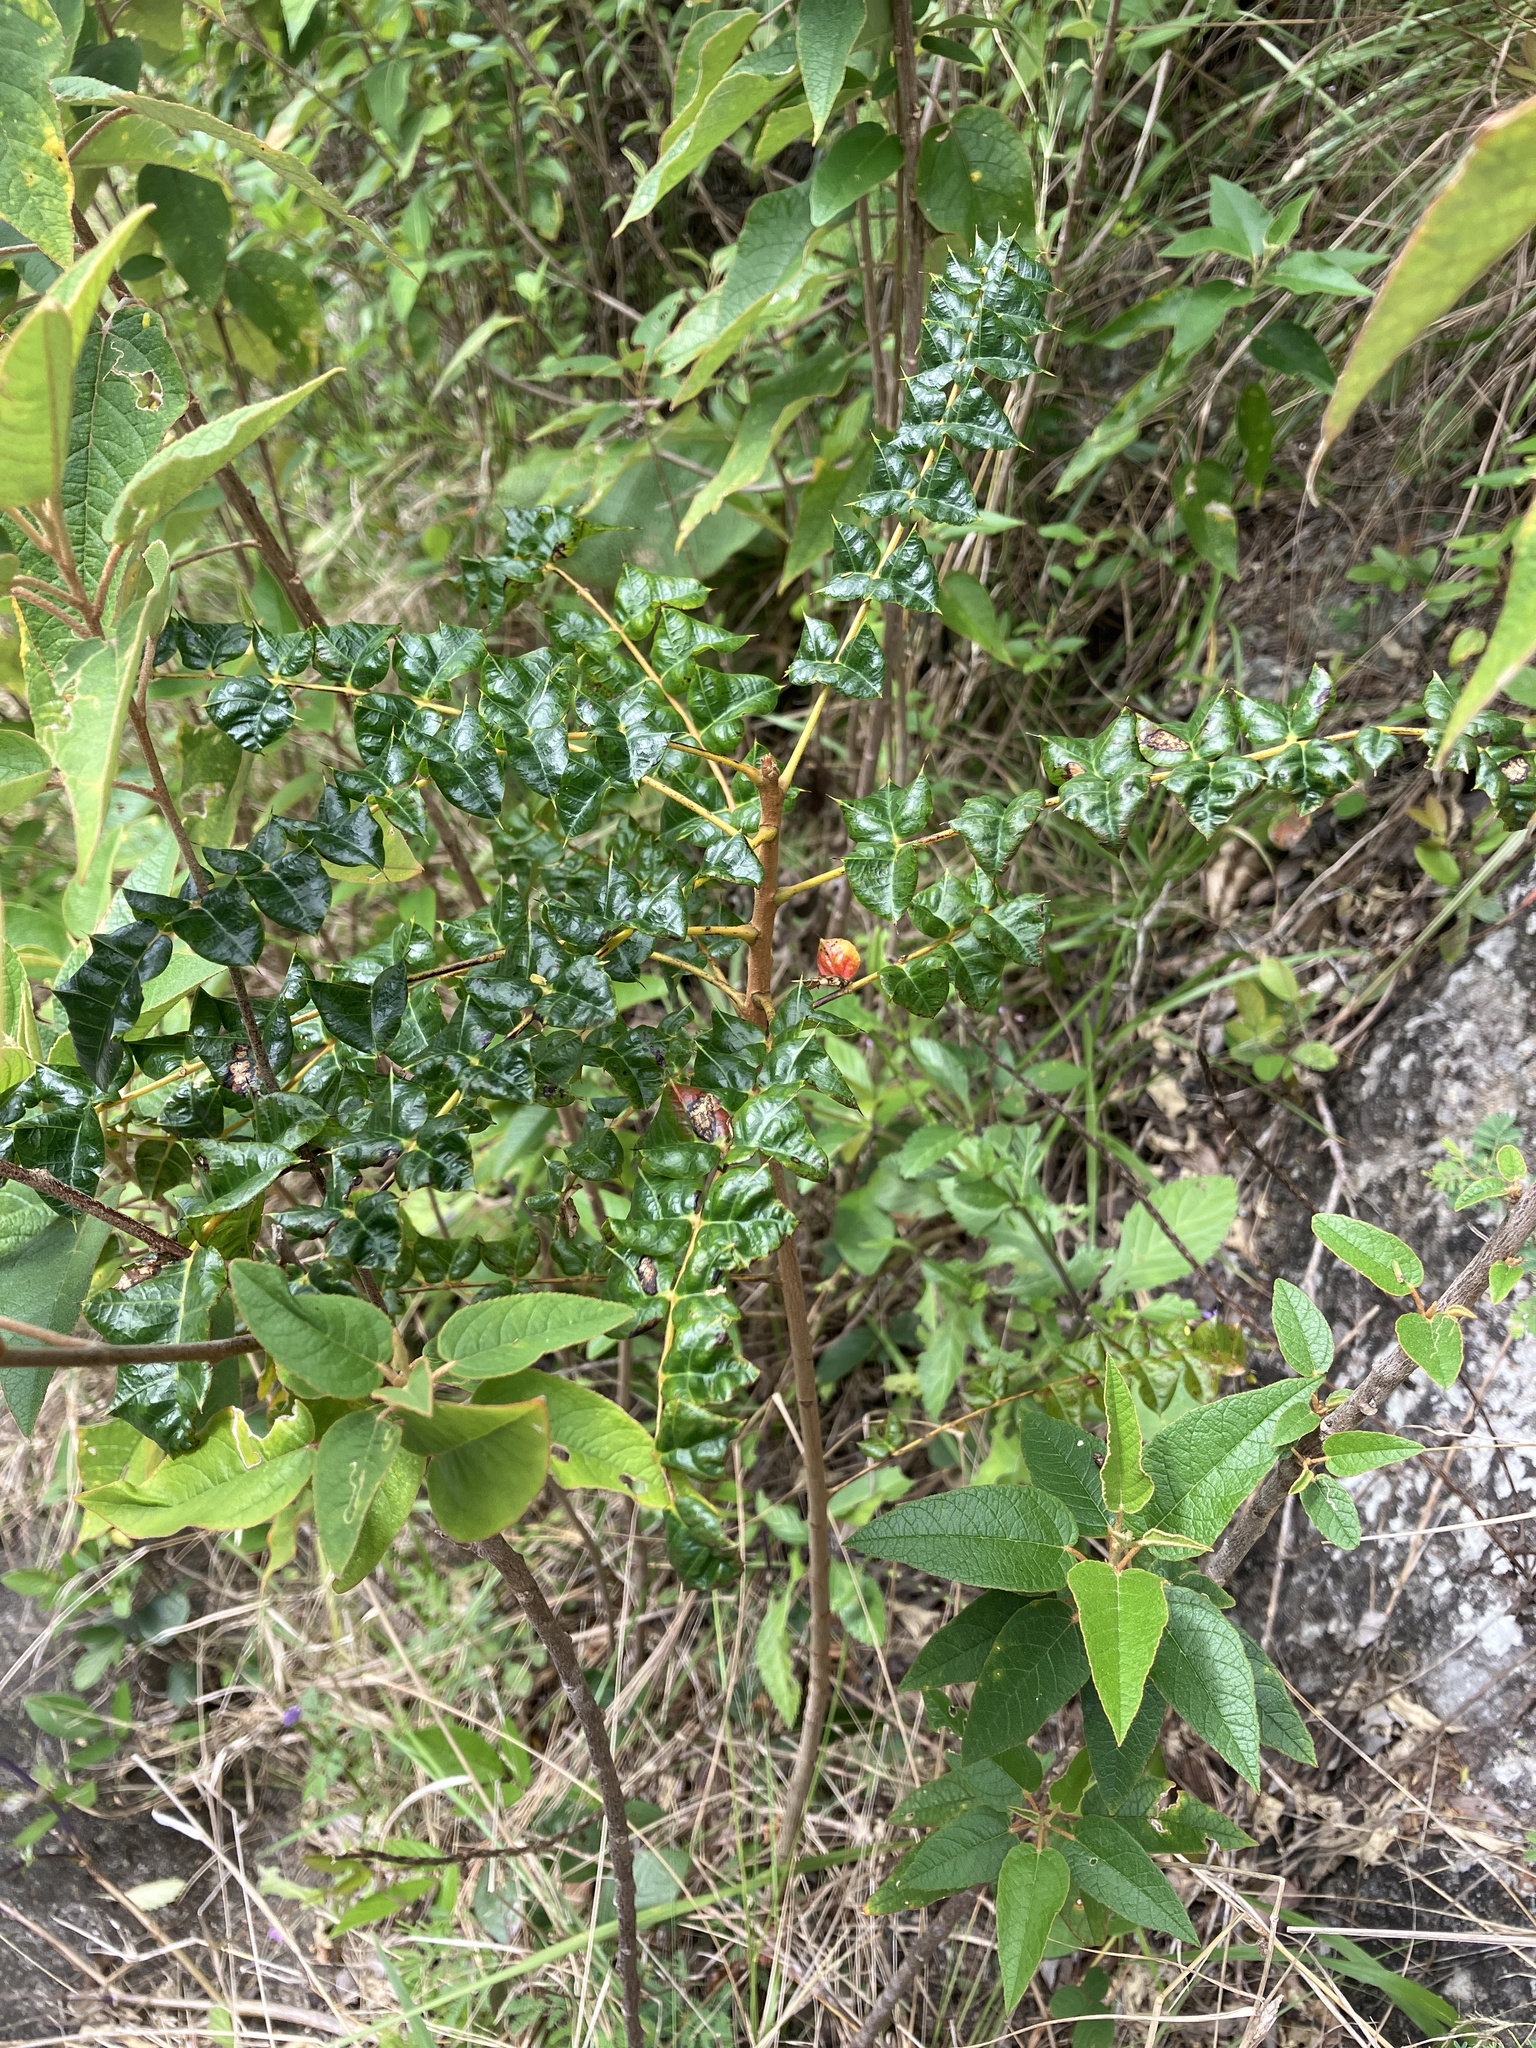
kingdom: Plantae
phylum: Tracheophyta
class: Magnoliopsida
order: Sapindales
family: Anacardiaceae
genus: Comocladia
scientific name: Comocladia dodonaea
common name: Poison ash
